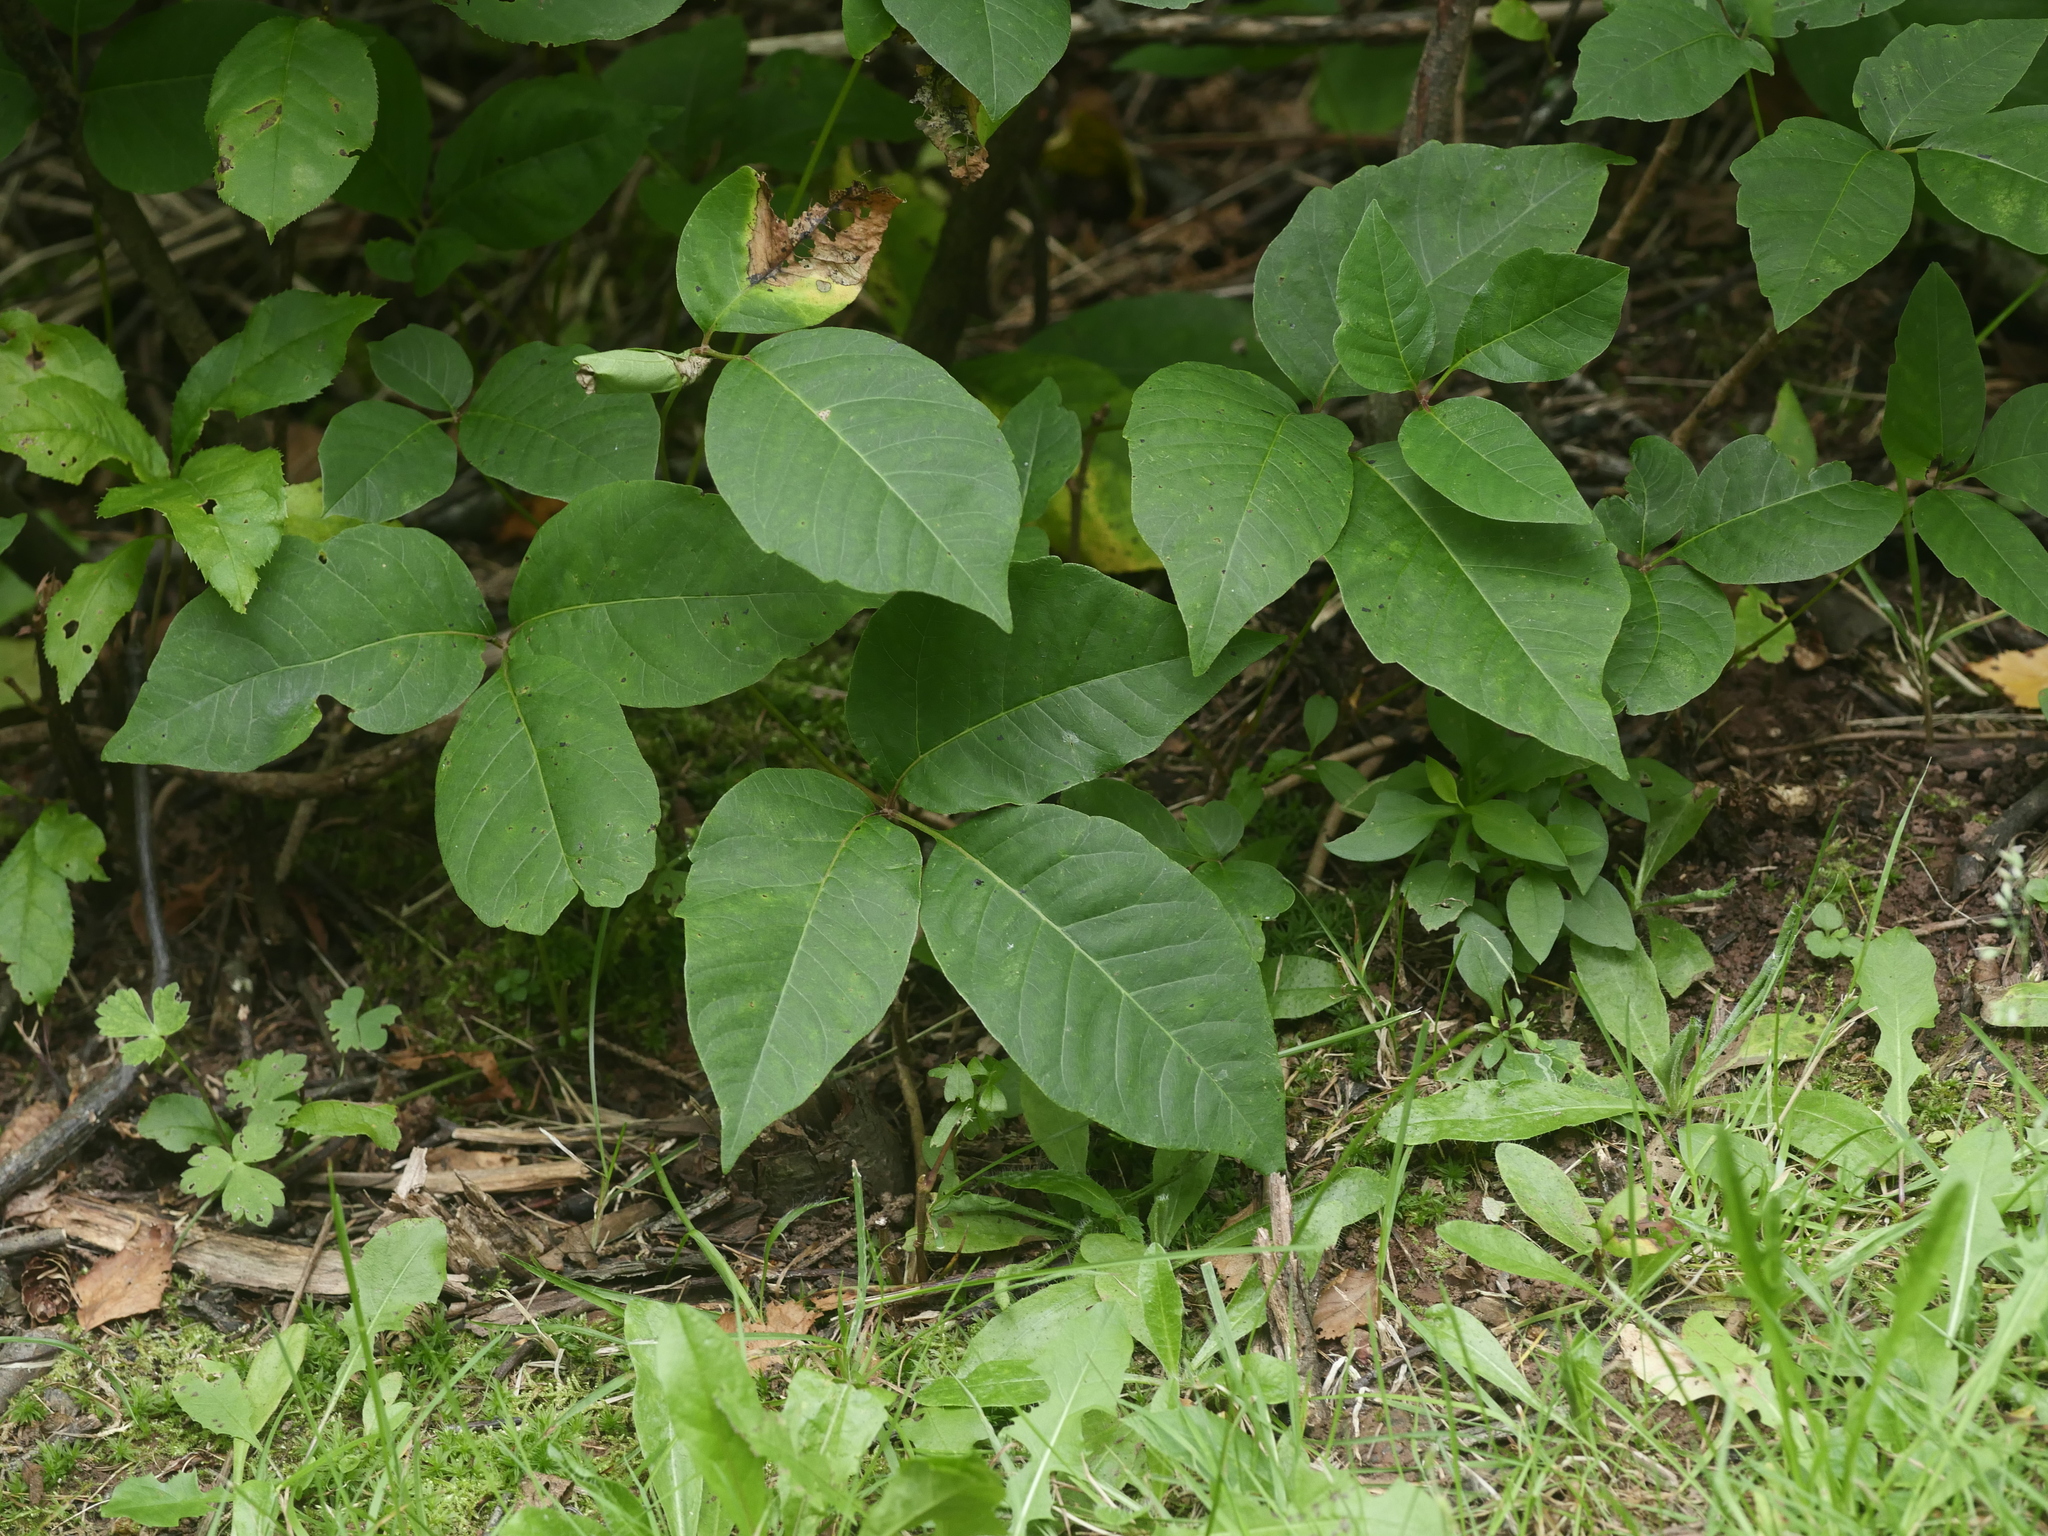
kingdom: Plantae
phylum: Tracheophyta
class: Magnoliopsida
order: Sapindales
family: Anacardiaceae
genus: Toxicodendron
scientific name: Toxicodendron rydbergii
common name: Rydberg's poison-ivy
